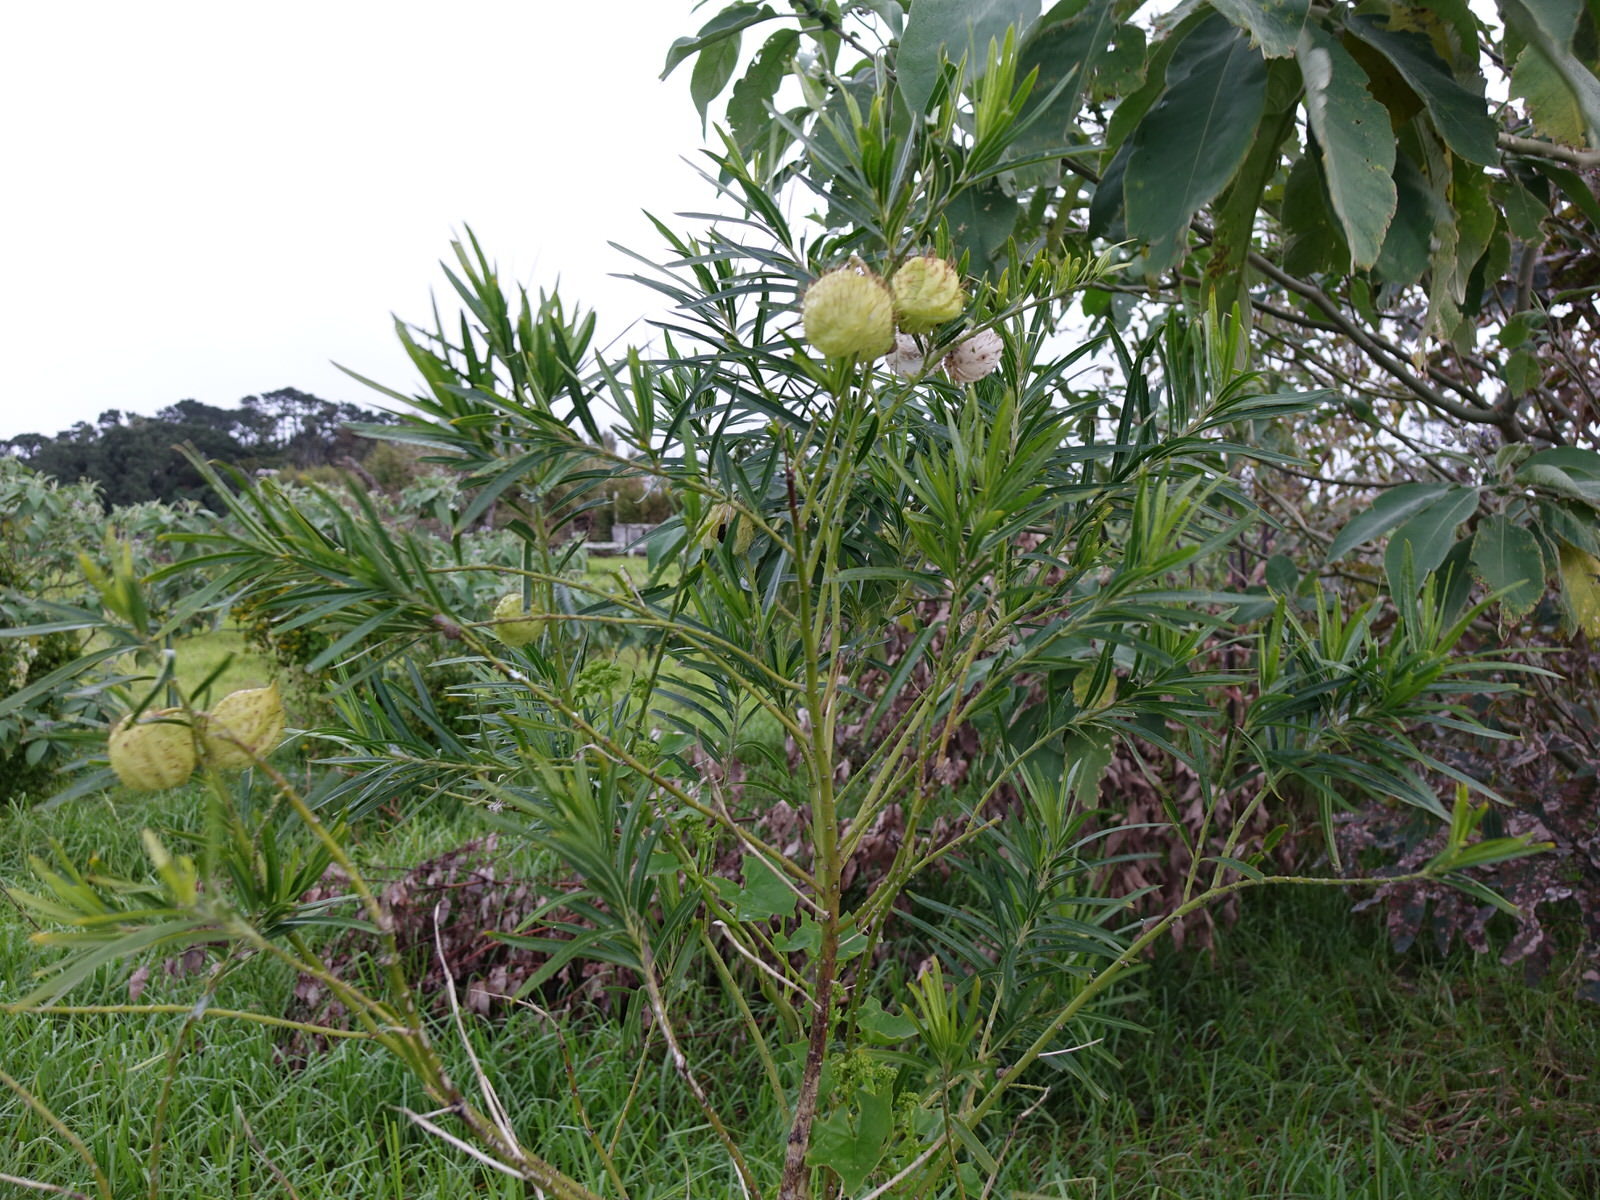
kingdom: Plantae
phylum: Tracheophyta
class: Magnoliopsida
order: Gentianales
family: Apocynaceae
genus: Gomphocarpus
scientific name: Gomphocarpus physocarpus
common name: Balloon cotton bush
